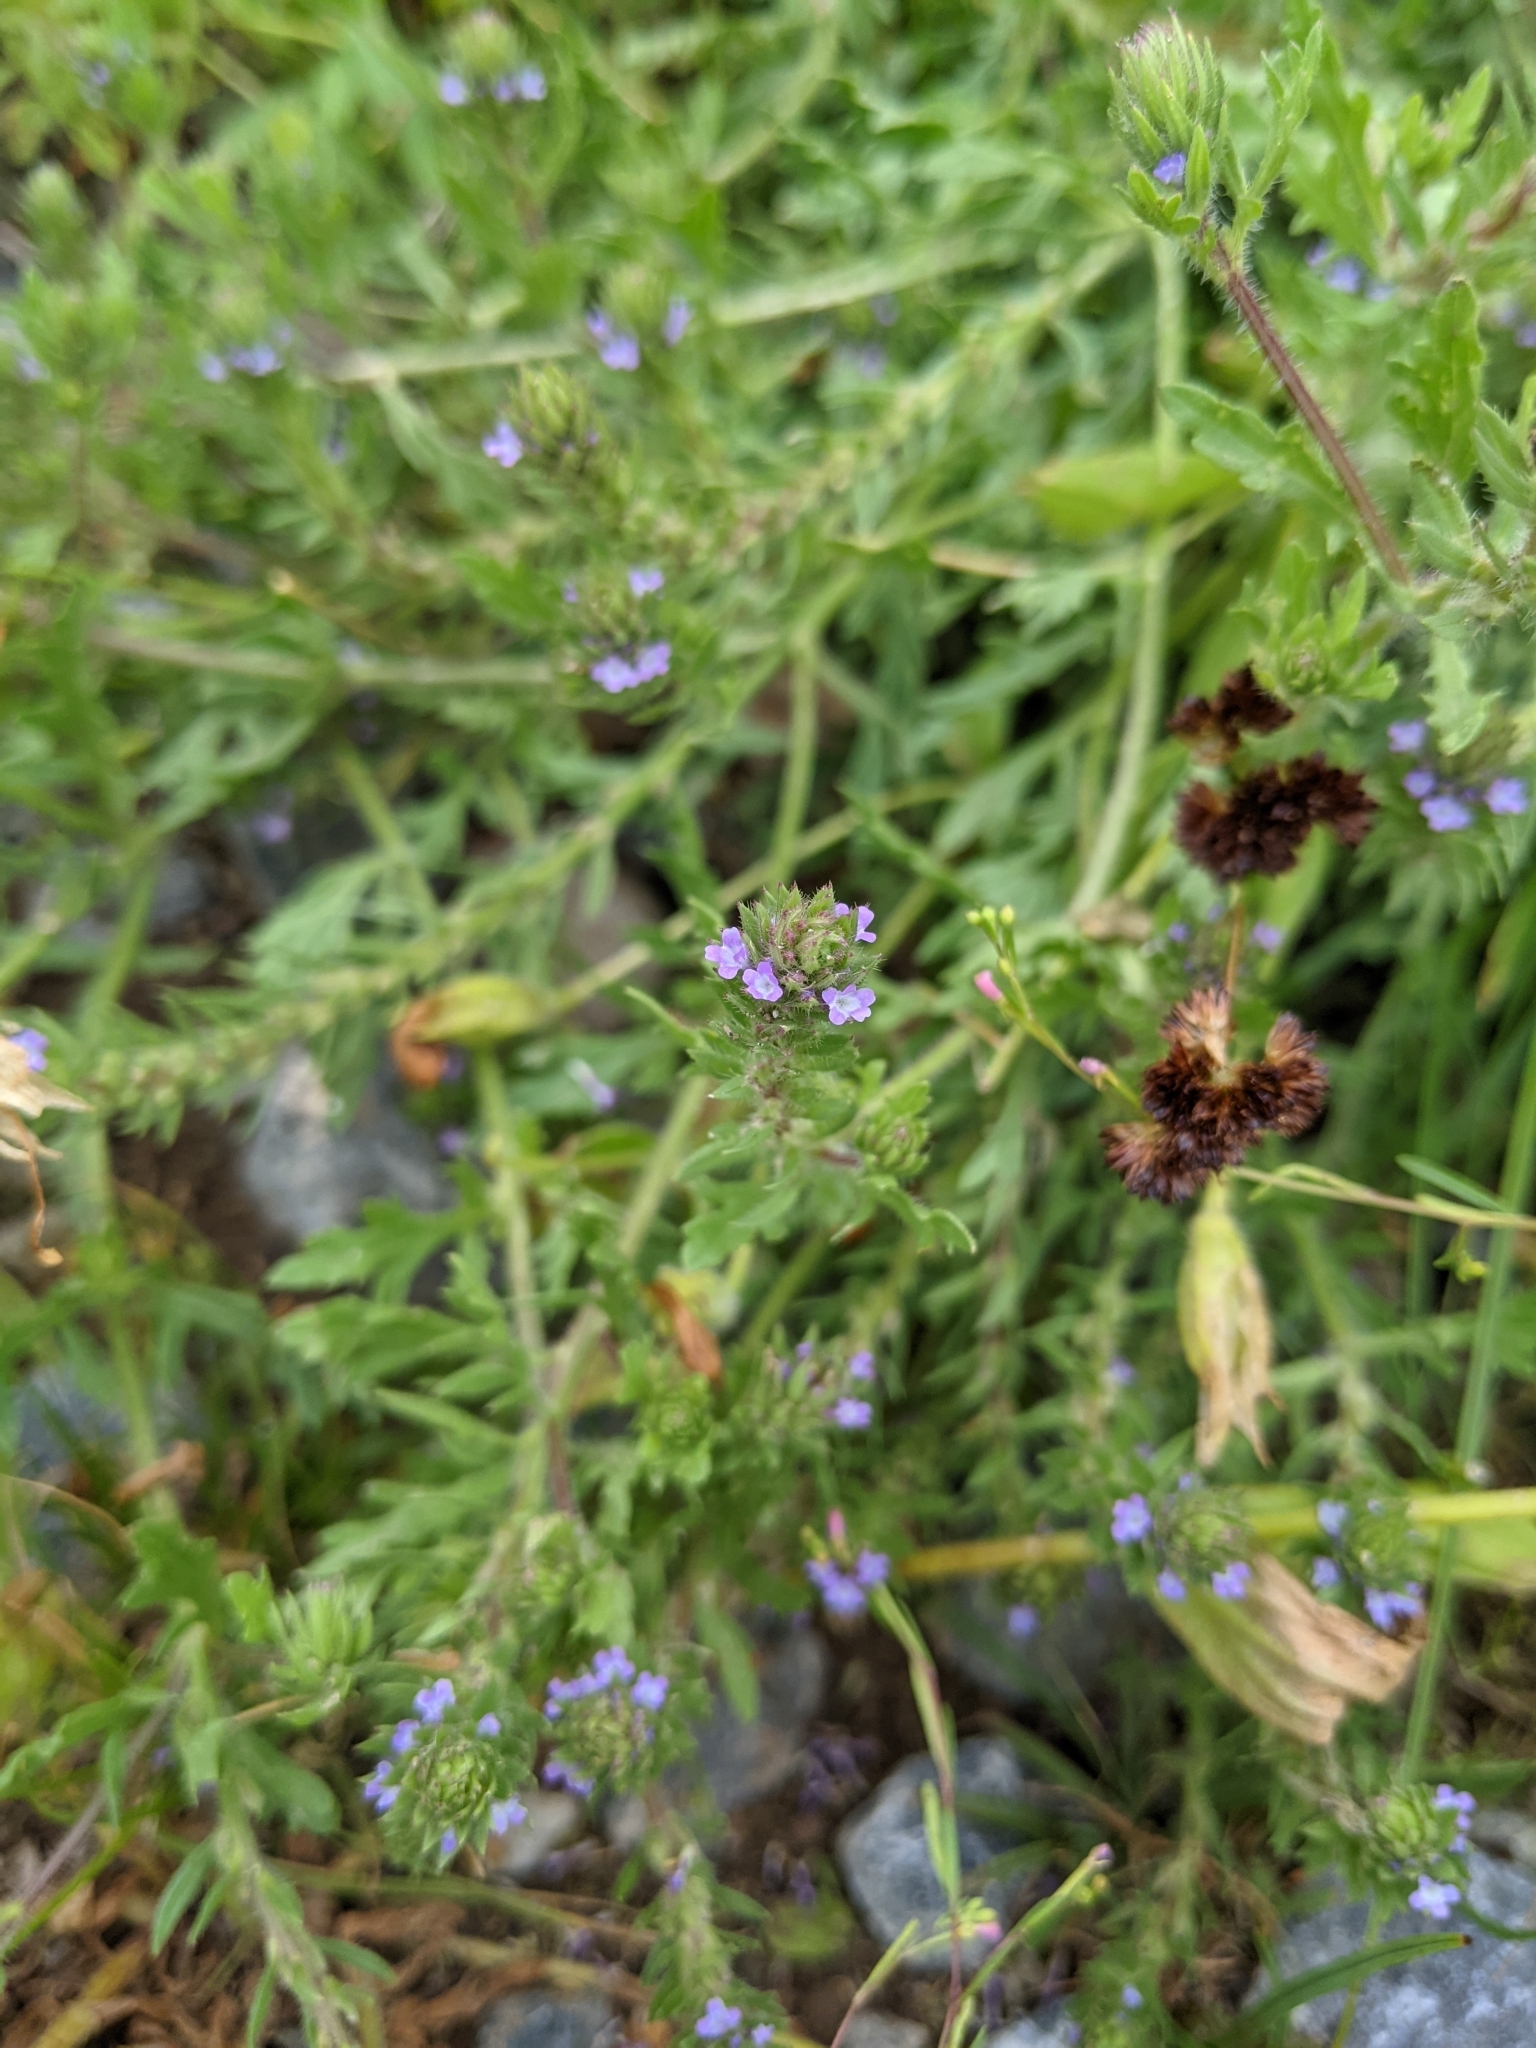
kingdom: Plantae
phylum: Tracheophyta
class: Magnoliopsida
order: Lamiales
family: Verbenaceae
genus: Verbena
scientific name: Verbena bracteata
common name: Bracted vervain
